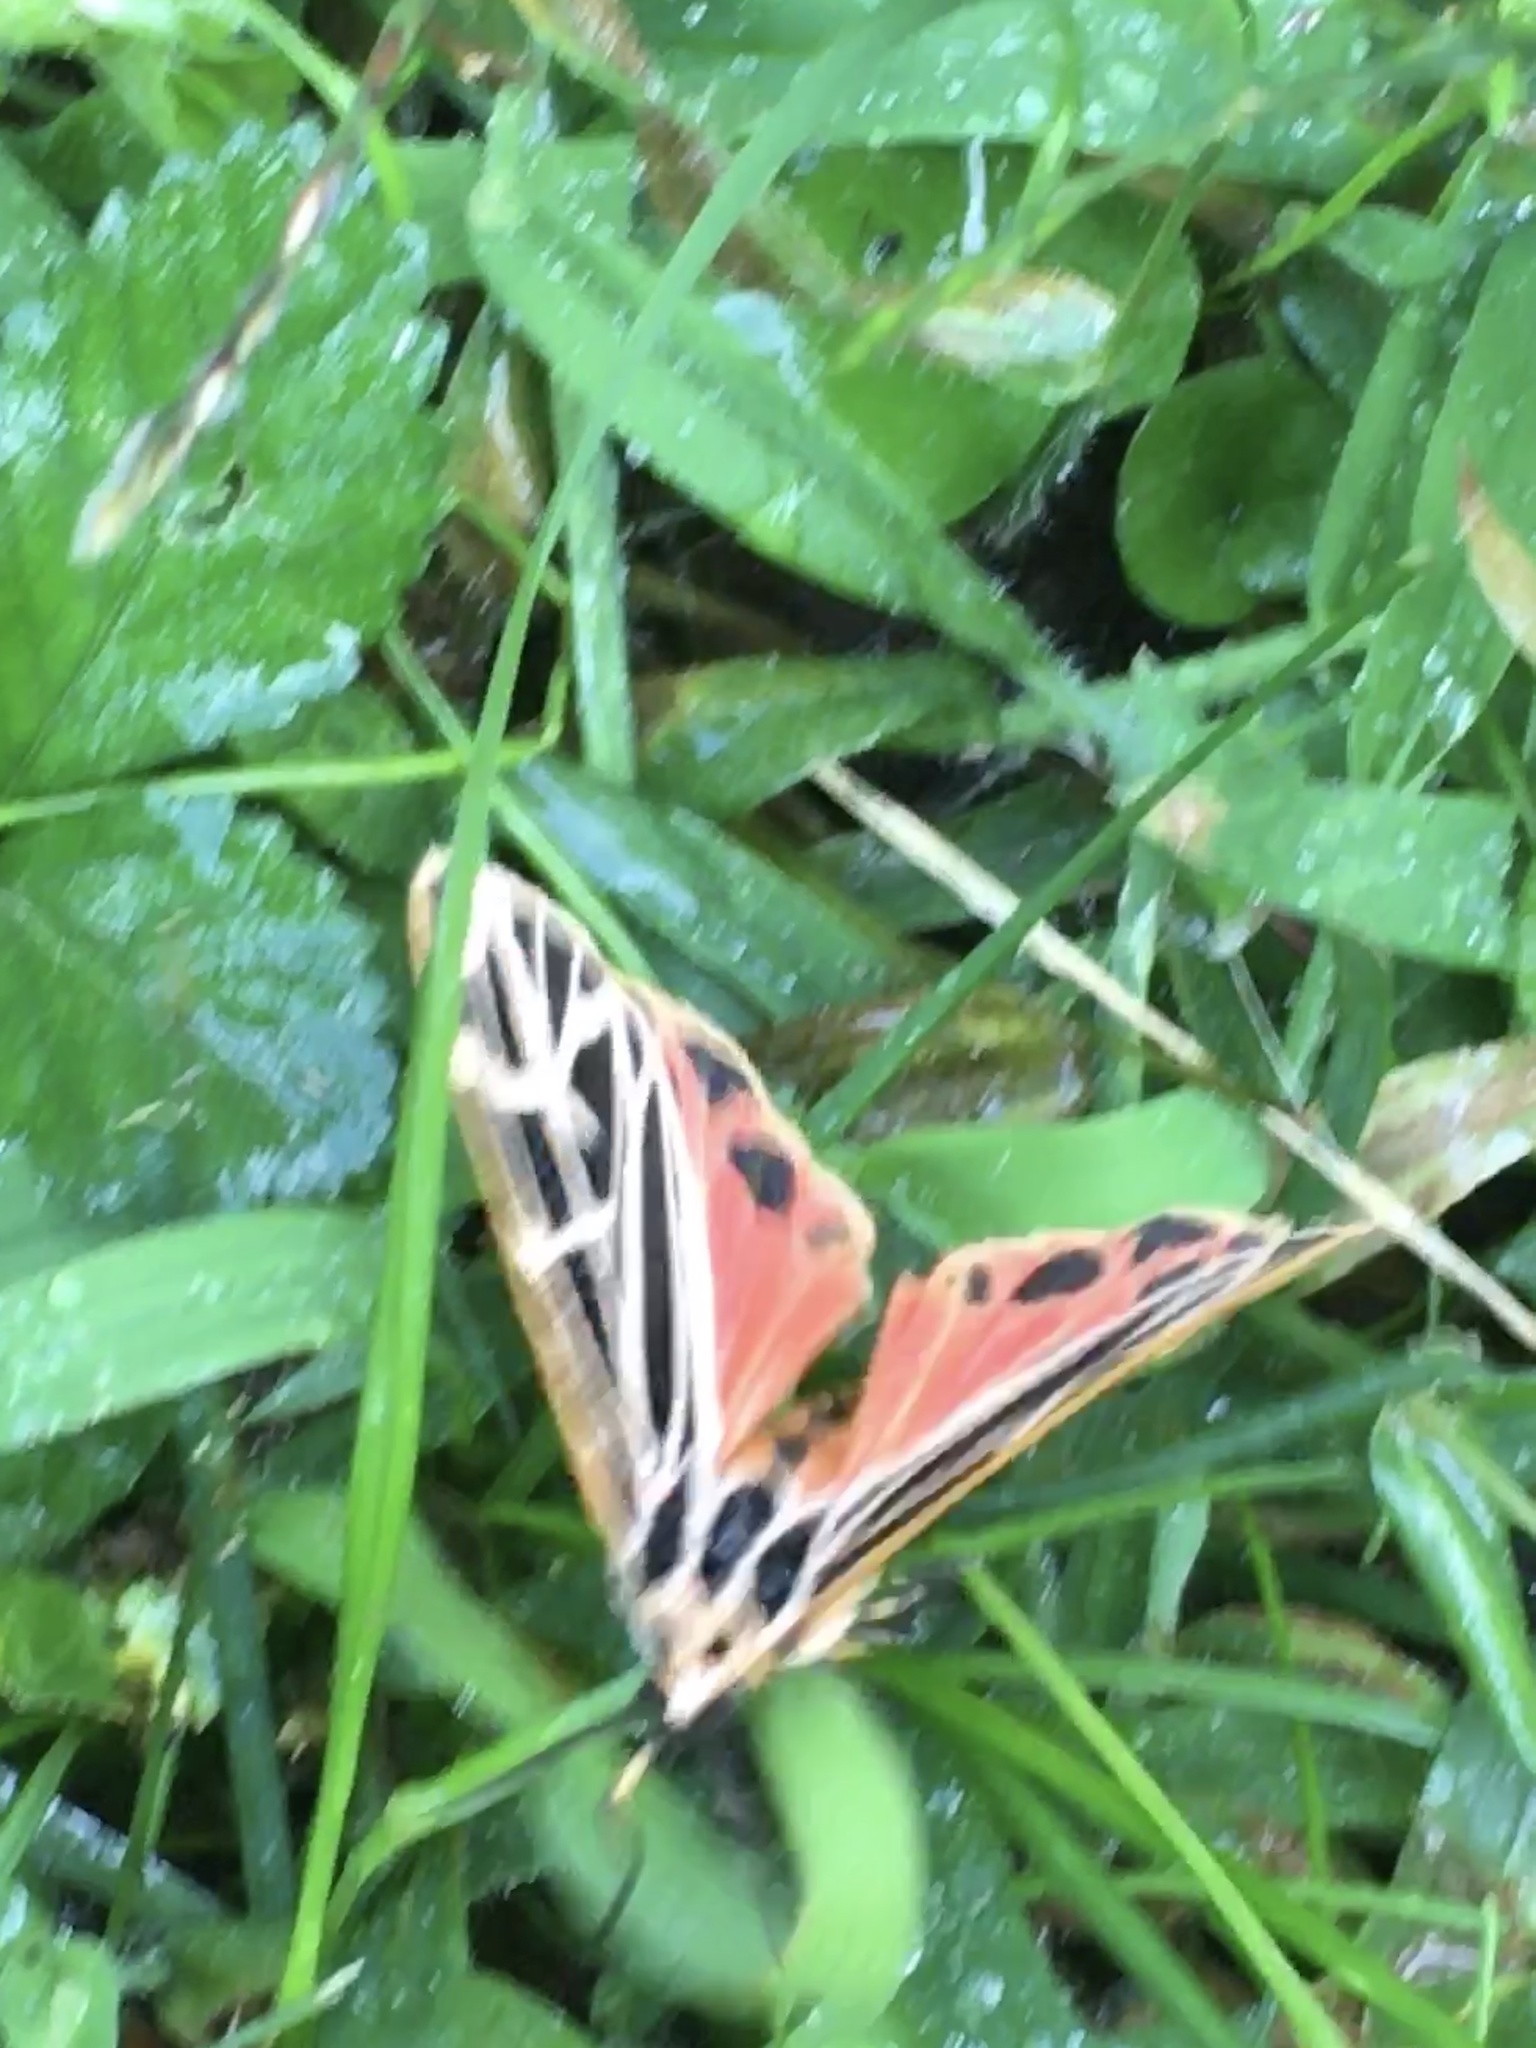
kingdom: Animalia
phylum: Arthropoda
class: Insecta
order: Lepidoptera
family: Erebidae
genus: Grammia
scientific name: Grammia parthenice
